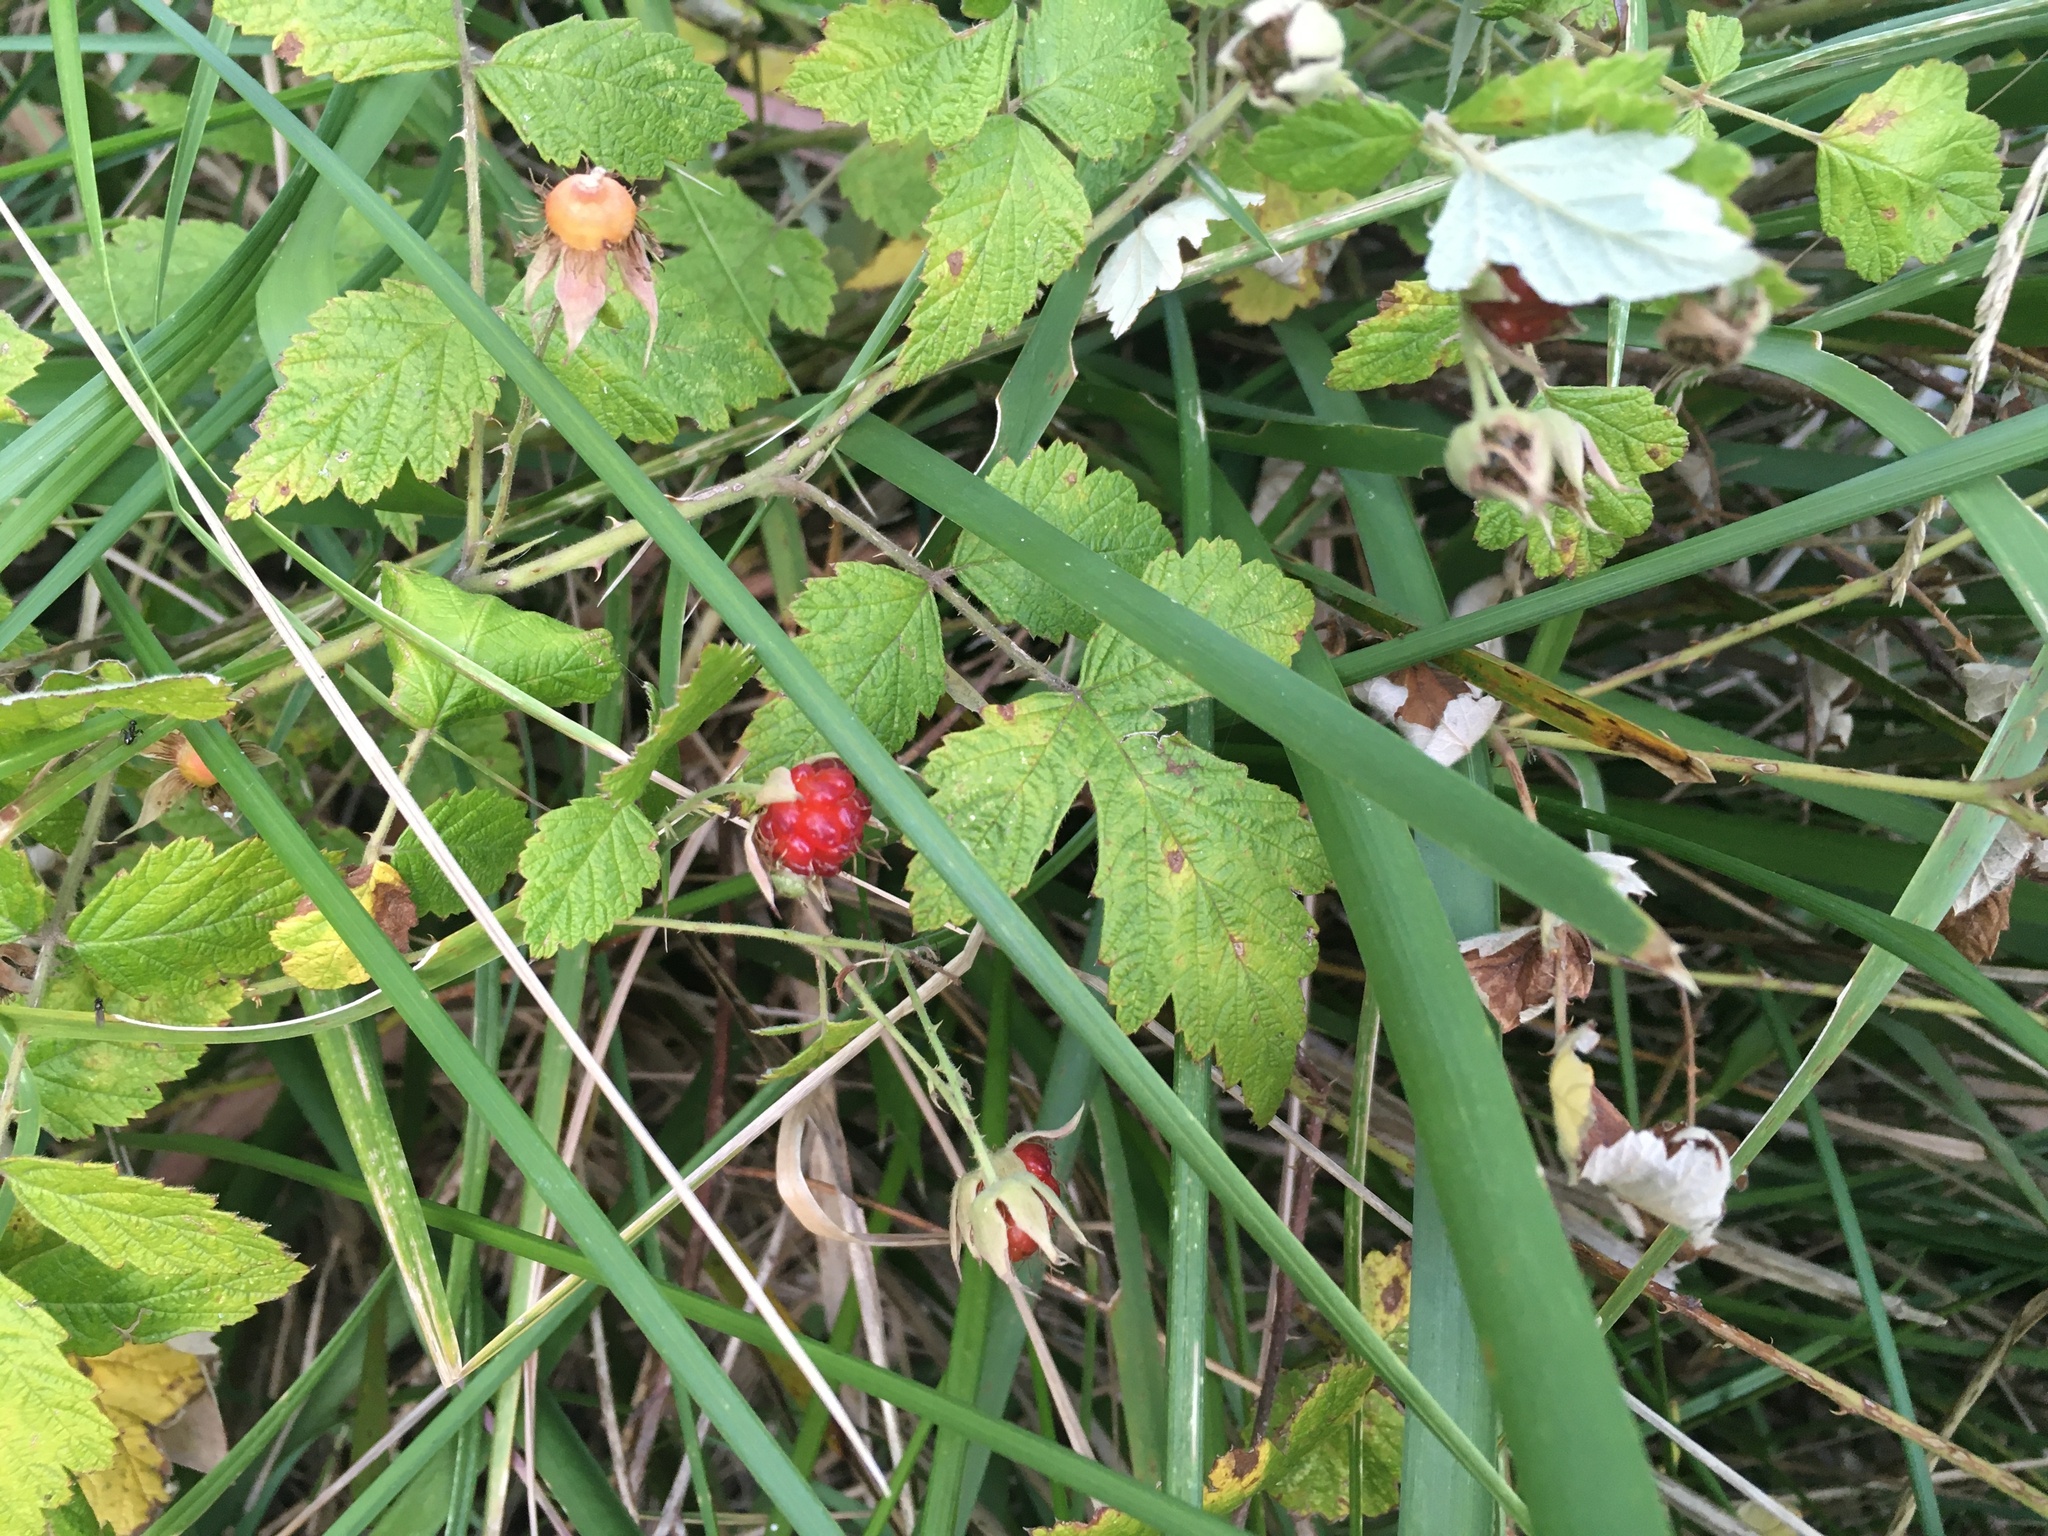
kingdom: Plantae
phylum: Tracheophyta
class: Magnoliopsida
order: Rosales
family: Rosaceae
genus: Rubus
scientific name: Rubus parvifolius
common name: Threeleaf blackberry
